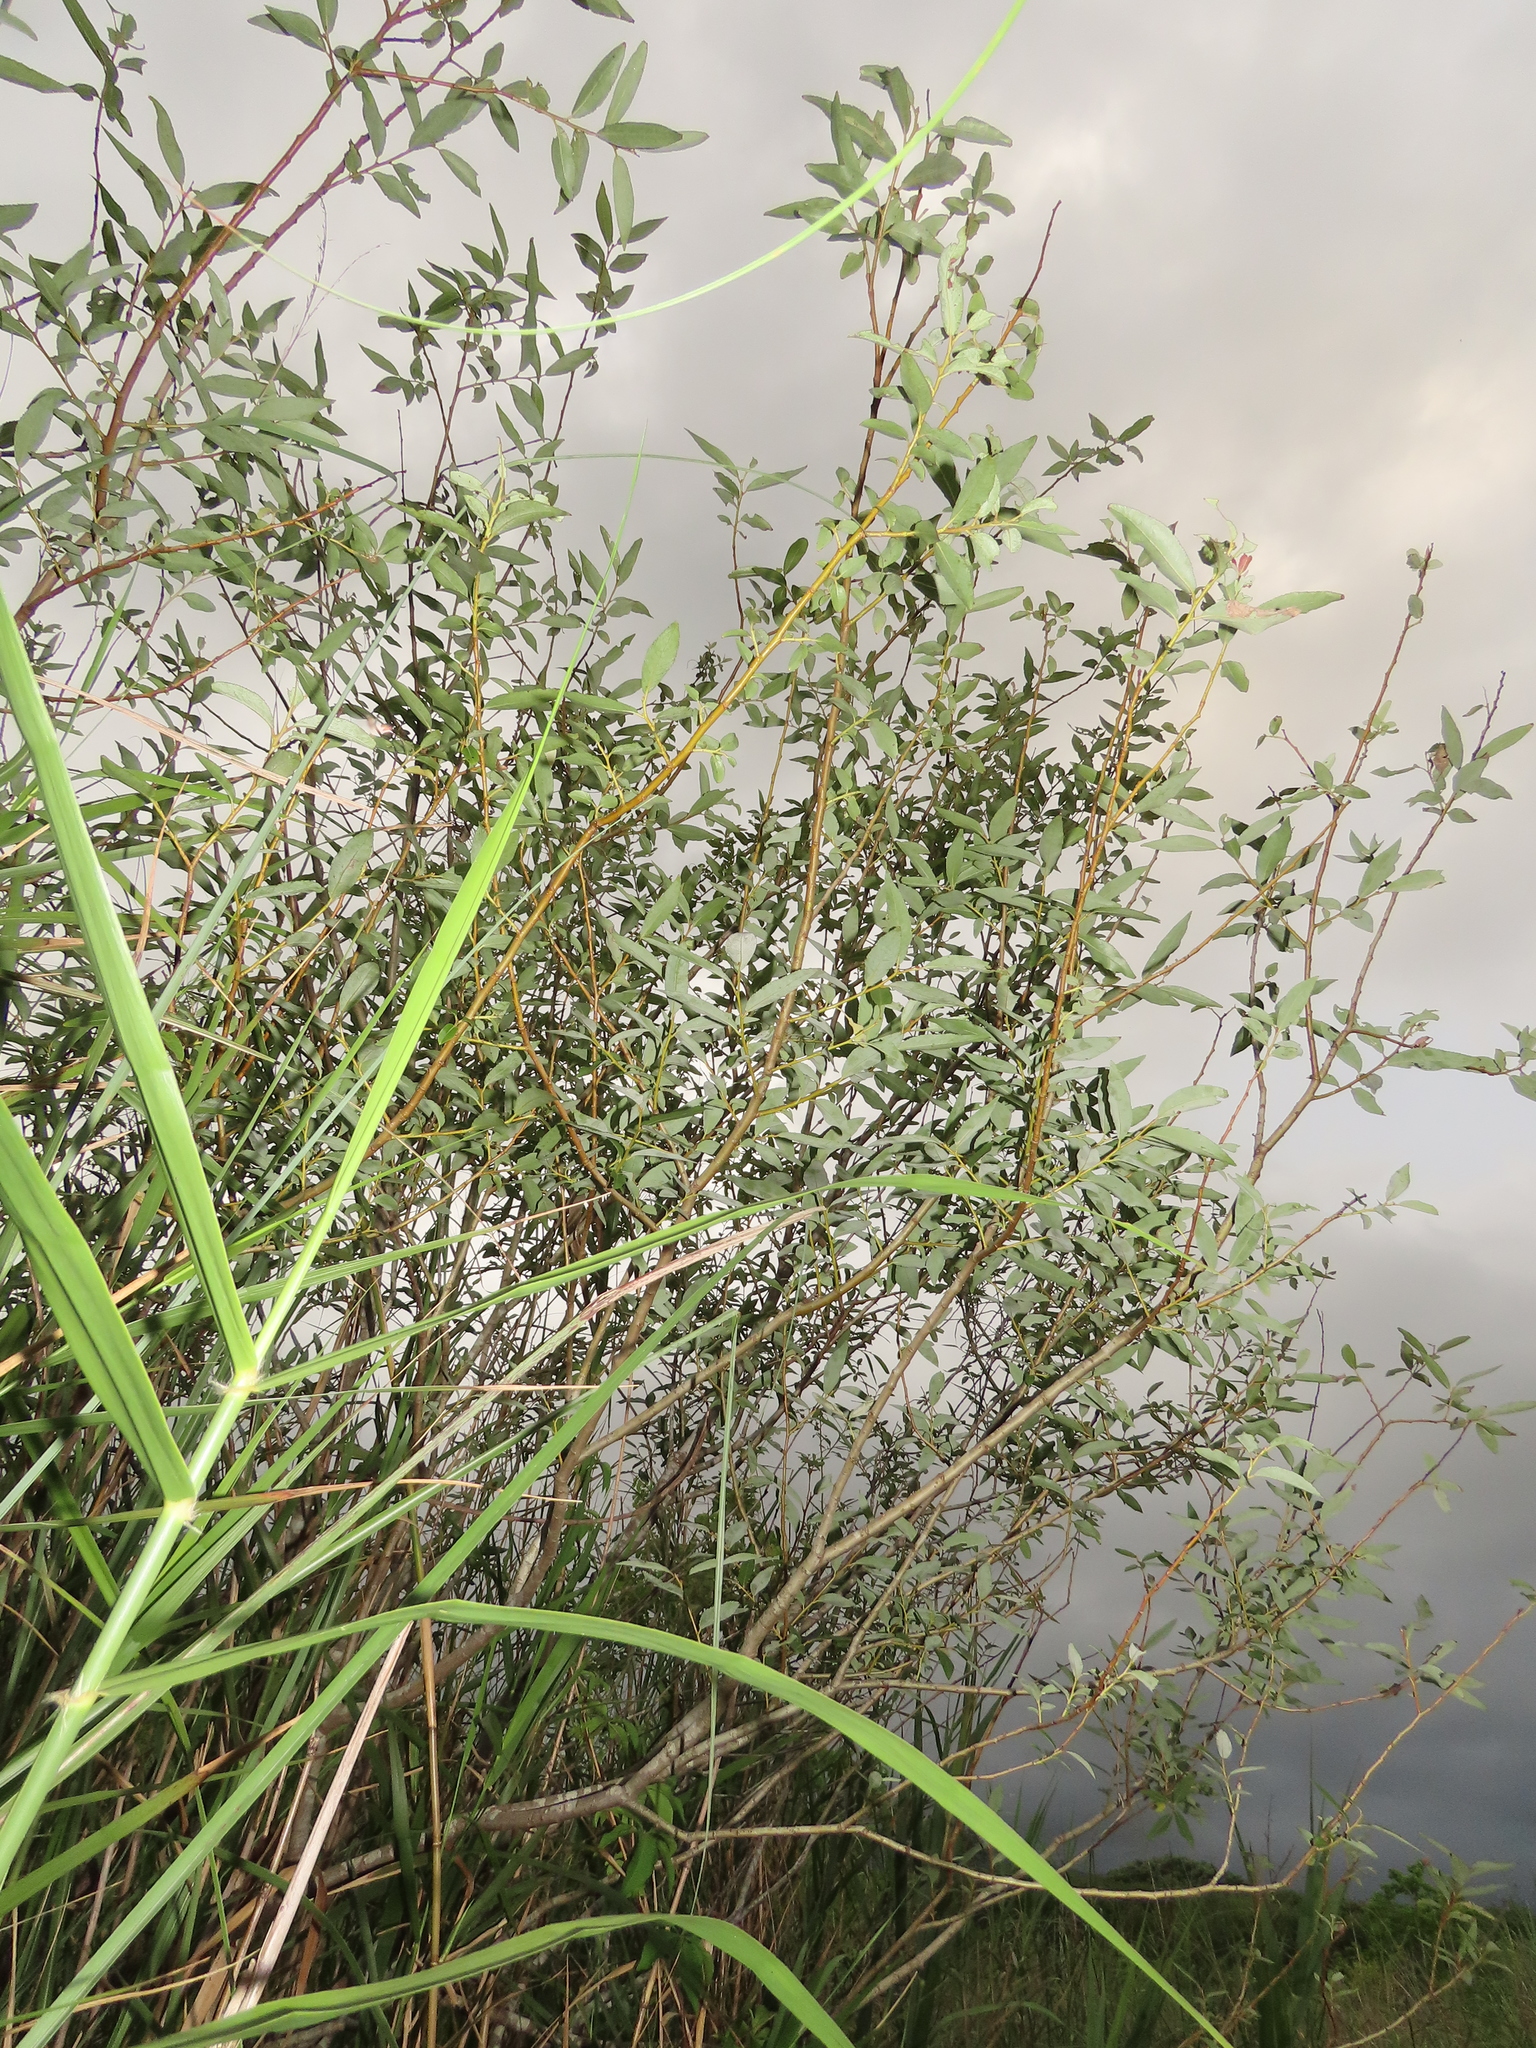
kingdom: Plantae
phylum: Tracheophyta
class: Magnoliopsida
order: Malpighiales
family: Salicaceae
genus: Salix
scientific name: Salix mesnyi
